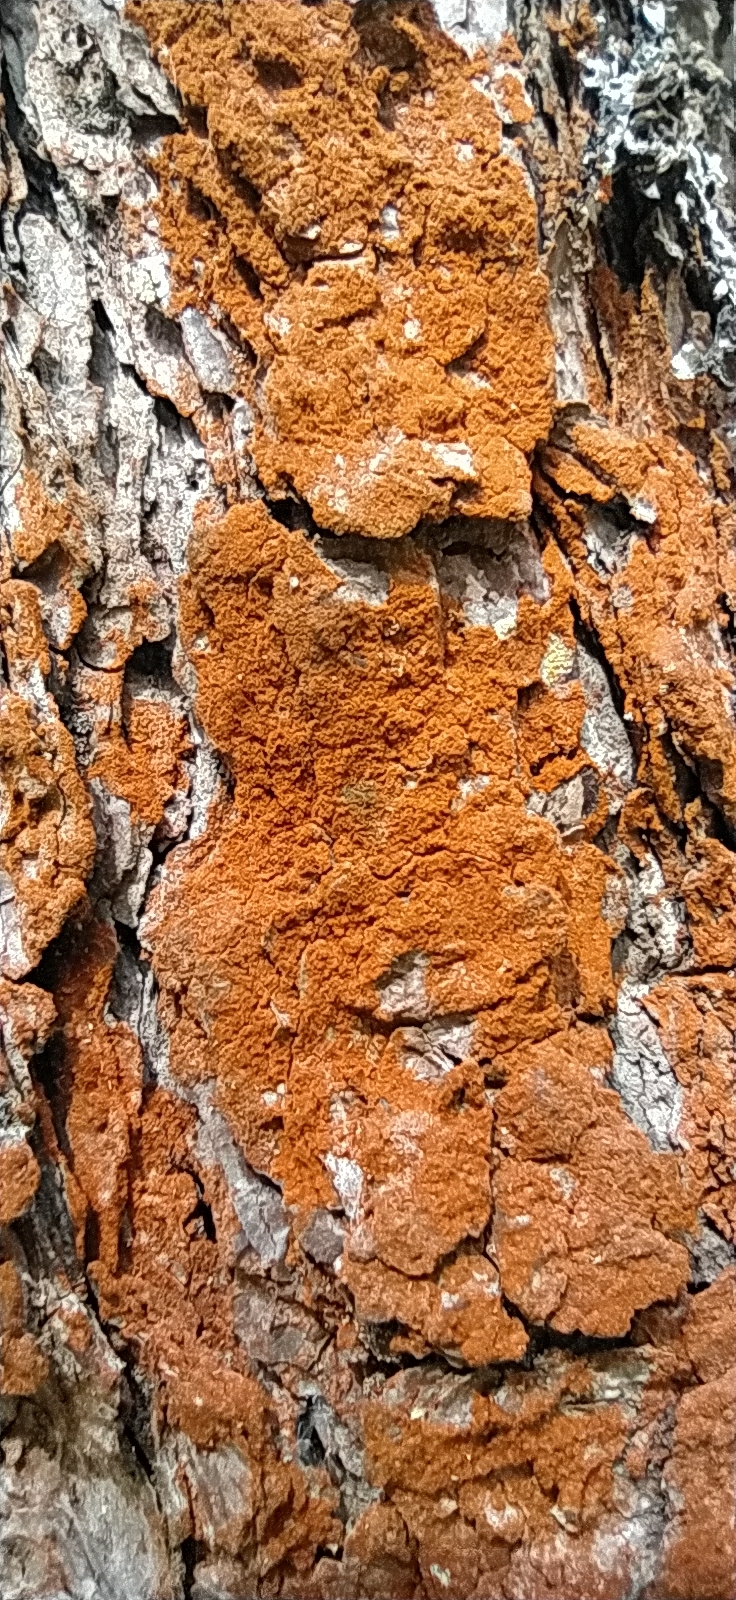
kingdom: Plantae
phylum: Chlorophyta
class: Ulvophyceae
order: Trentepohliales
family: Trentepohliaceae
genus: Trentepohlia
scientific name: Trentepohlia aurea
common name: Orange rock hair
